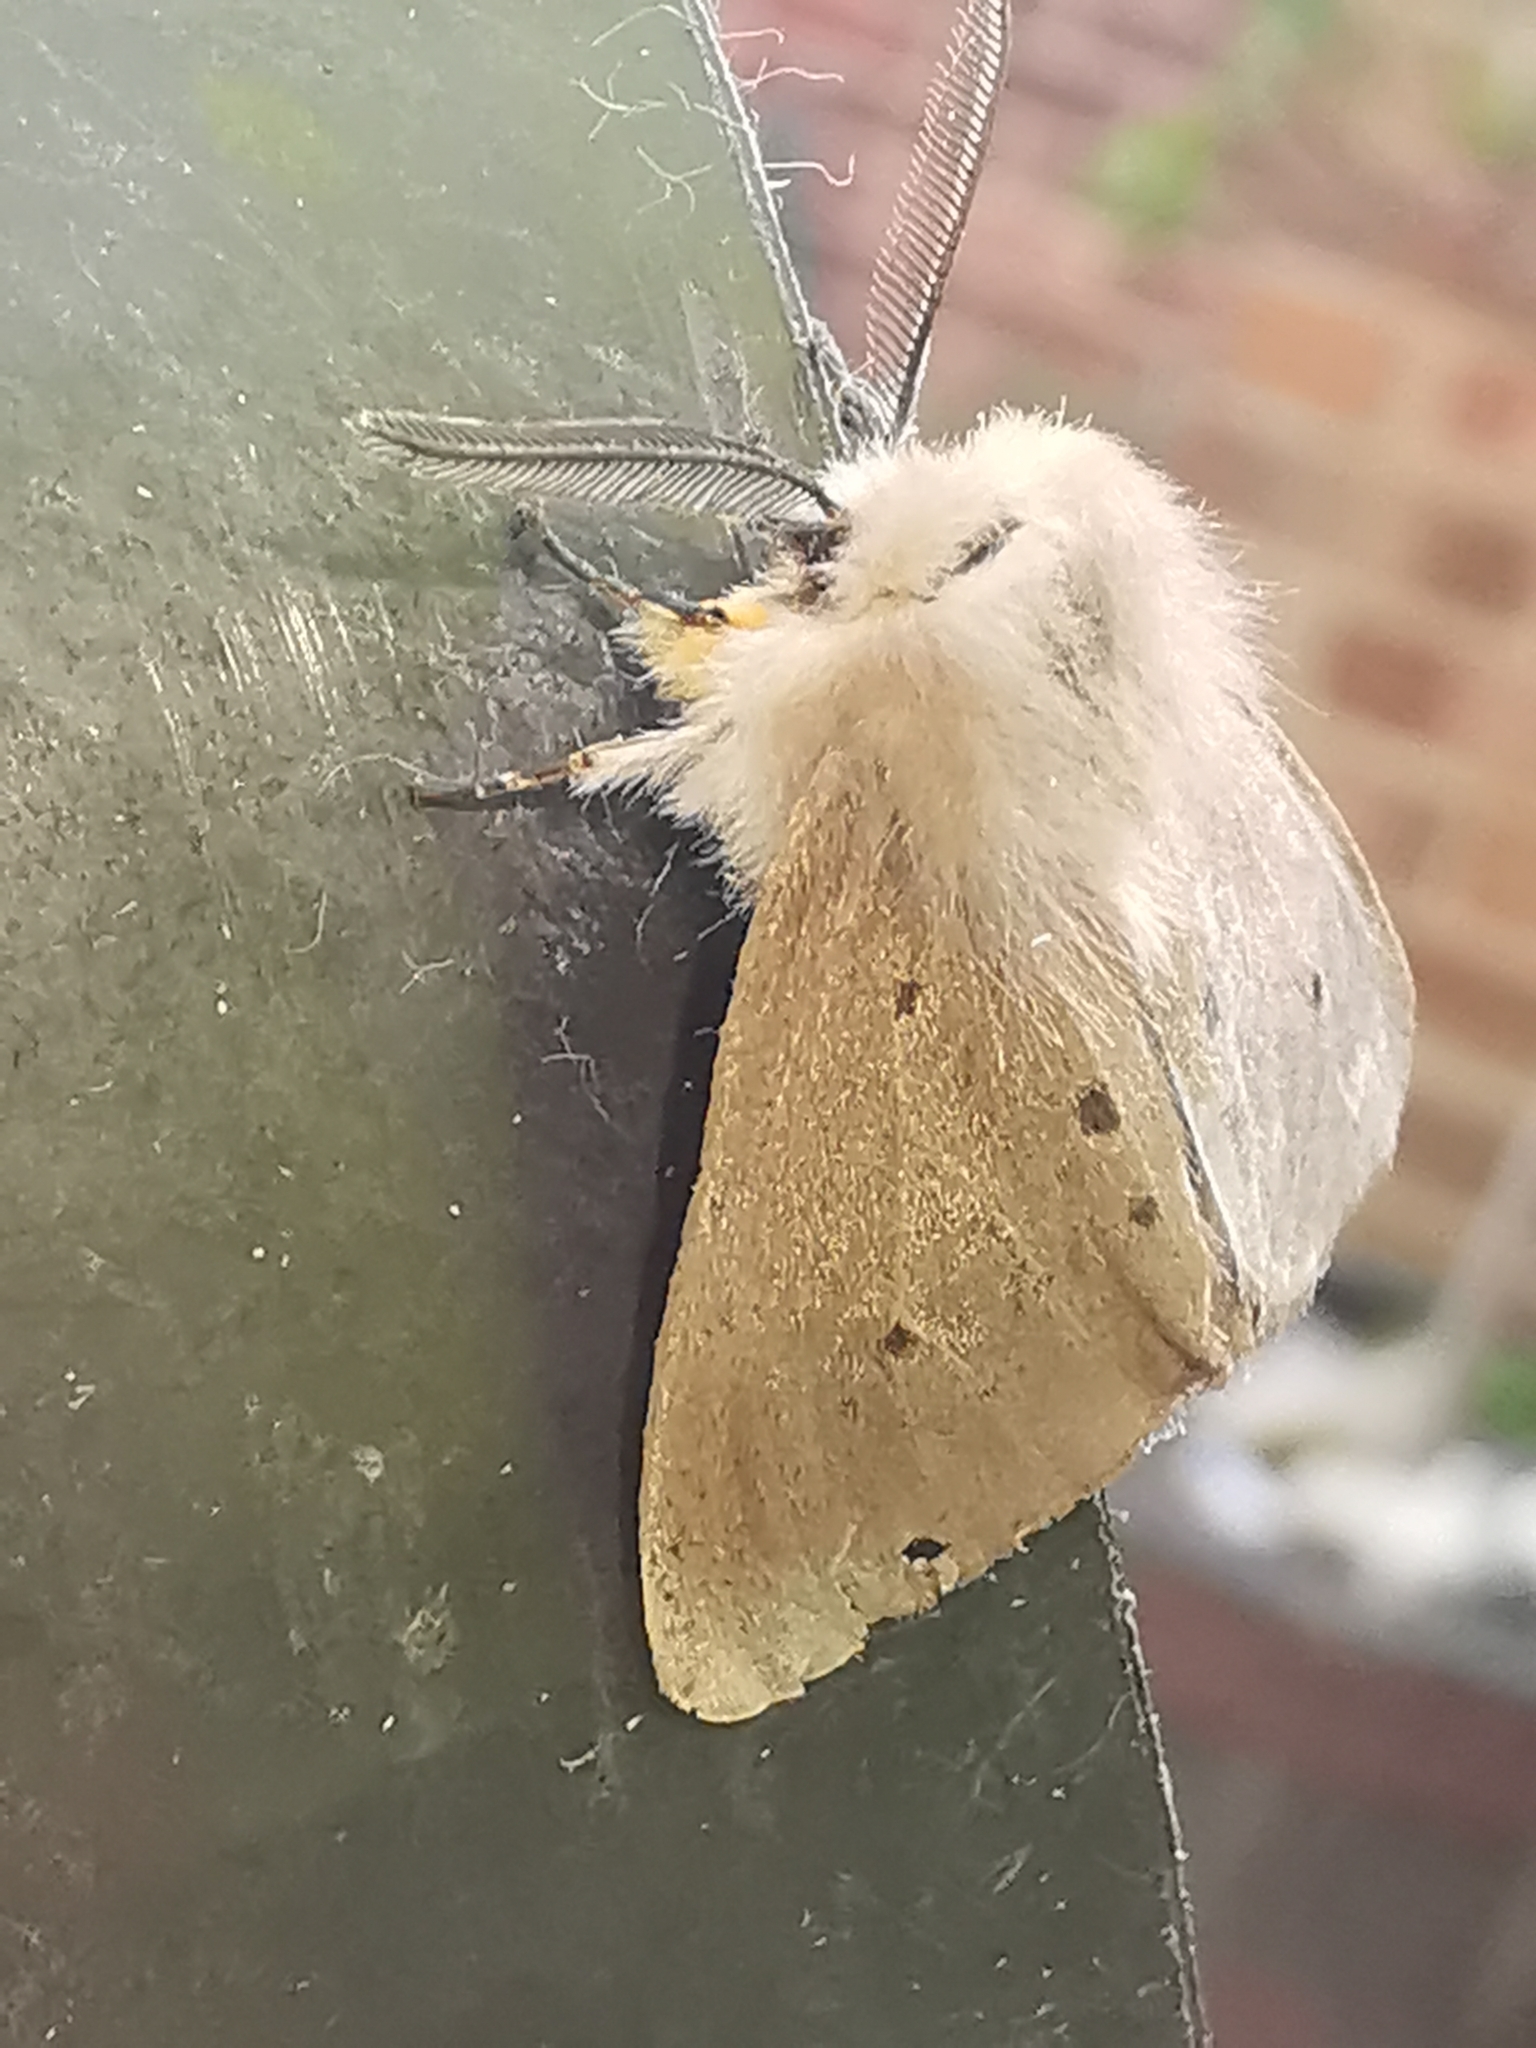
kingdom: Animalia
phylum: Arthropoda
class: Insecta
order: Lepidoptera
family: Erebidae
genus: Diaphora
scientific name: Diaphora mendica
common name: Muslin moth
